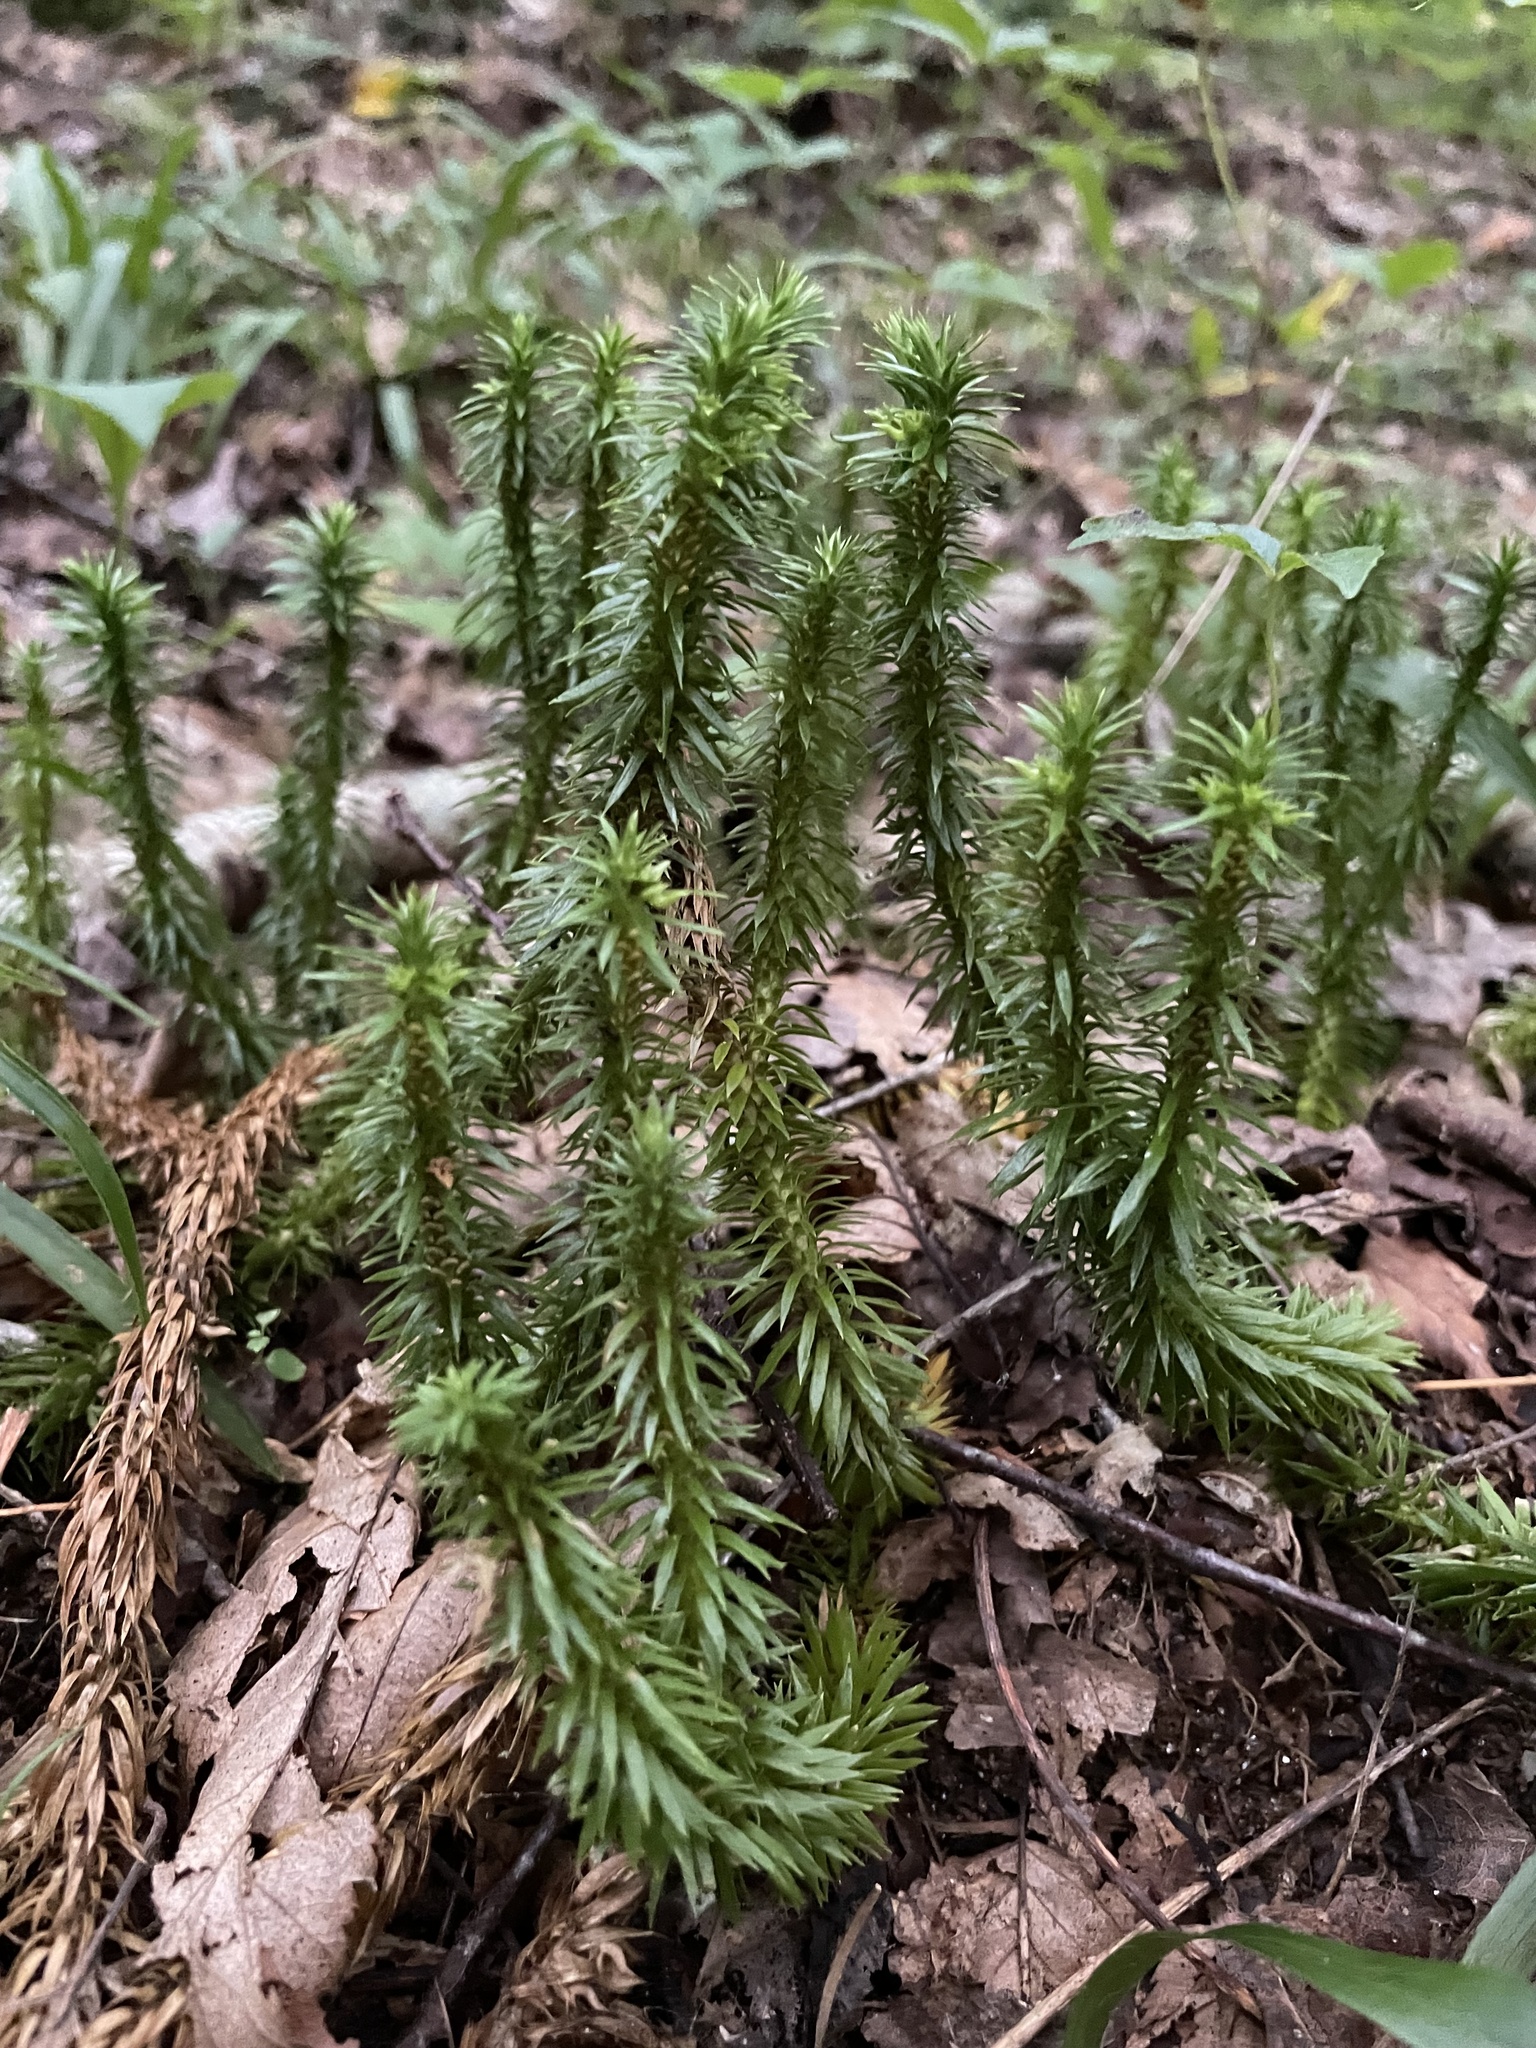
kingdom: Plantae
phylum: Tracheophyta
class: Lycopodiopsida
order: Lycopodiales
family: Lycopodiaceae
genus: Huperzia
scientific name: Huperzia lucidula
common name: Shining clubmoss
